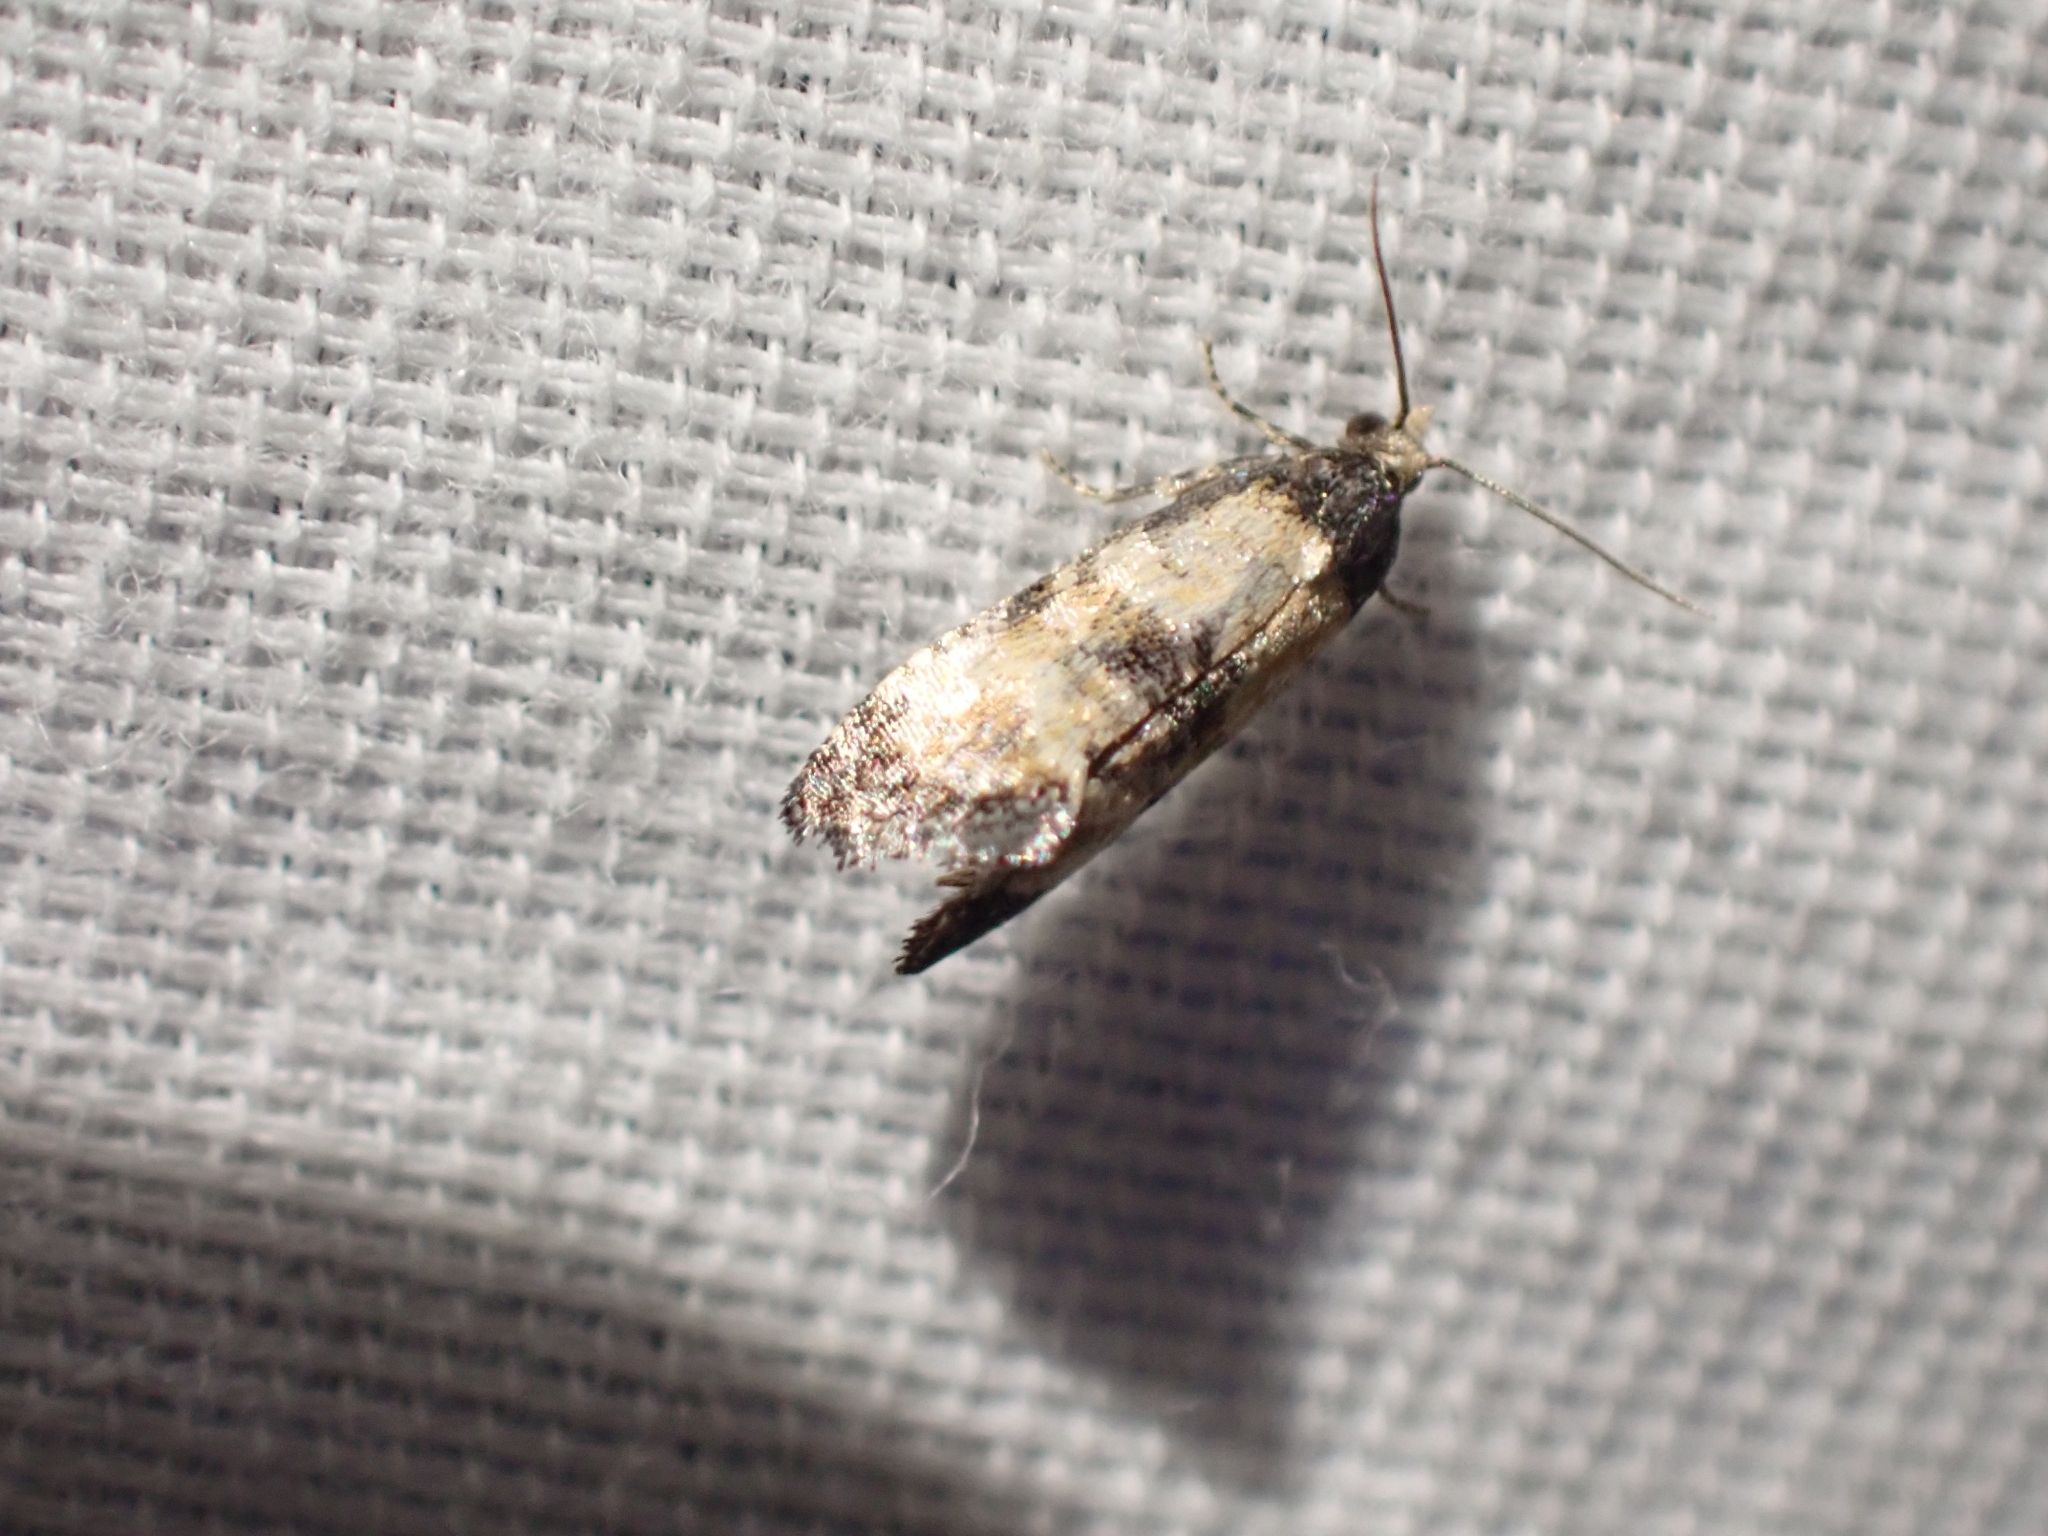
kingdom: Animalia
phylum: Arthropoda
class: Insecta
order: Lepidoptera
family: Tortricidae
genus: Cochylis
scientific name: Cochylis dubitana
